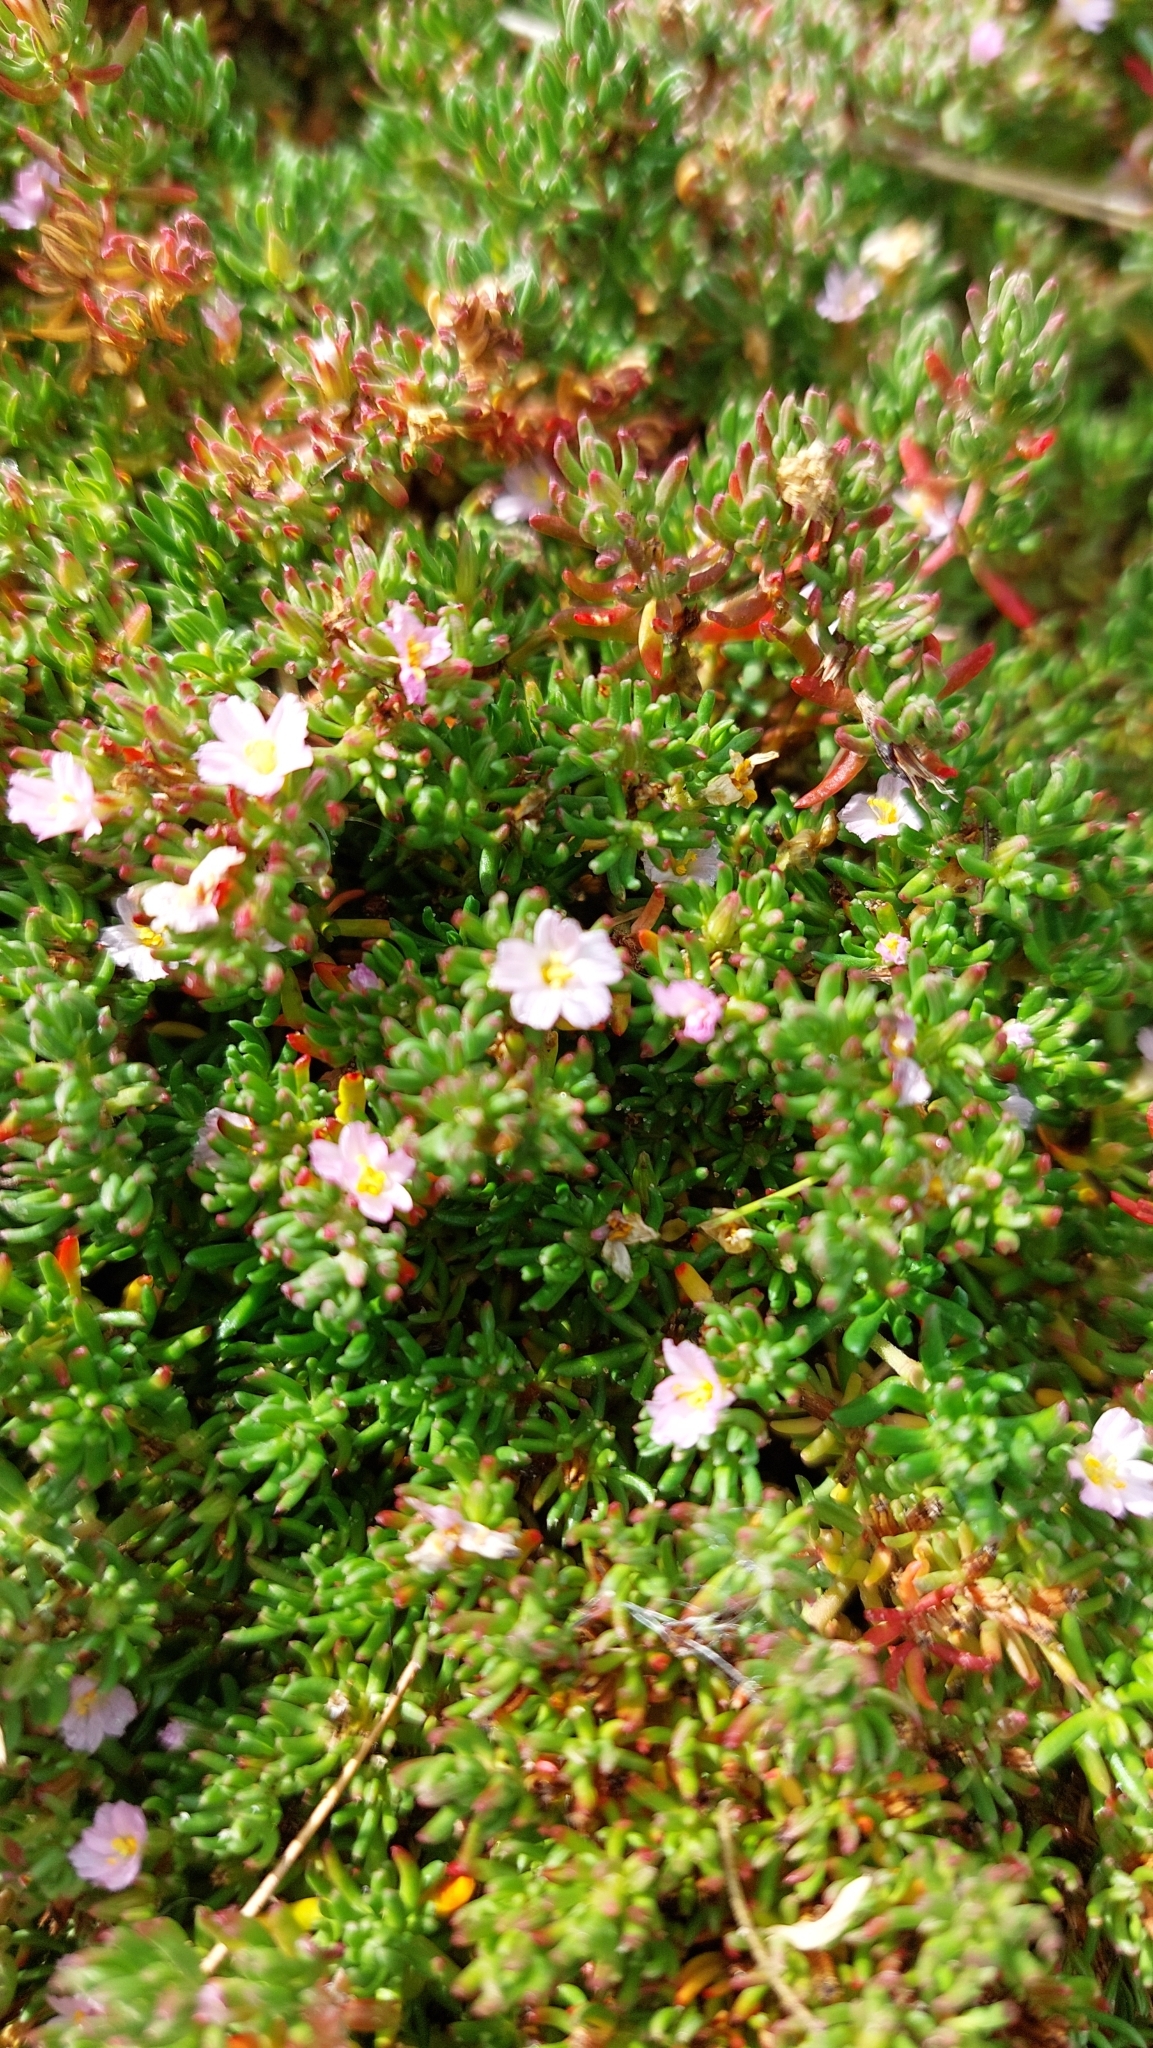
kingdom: Plantae
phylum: Tracheophyta
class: Magnoliopsida
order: Caryophyllales
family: Frankeniaceae
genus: Frankenia
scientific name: Frankenia laevis
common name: Sea-heath
